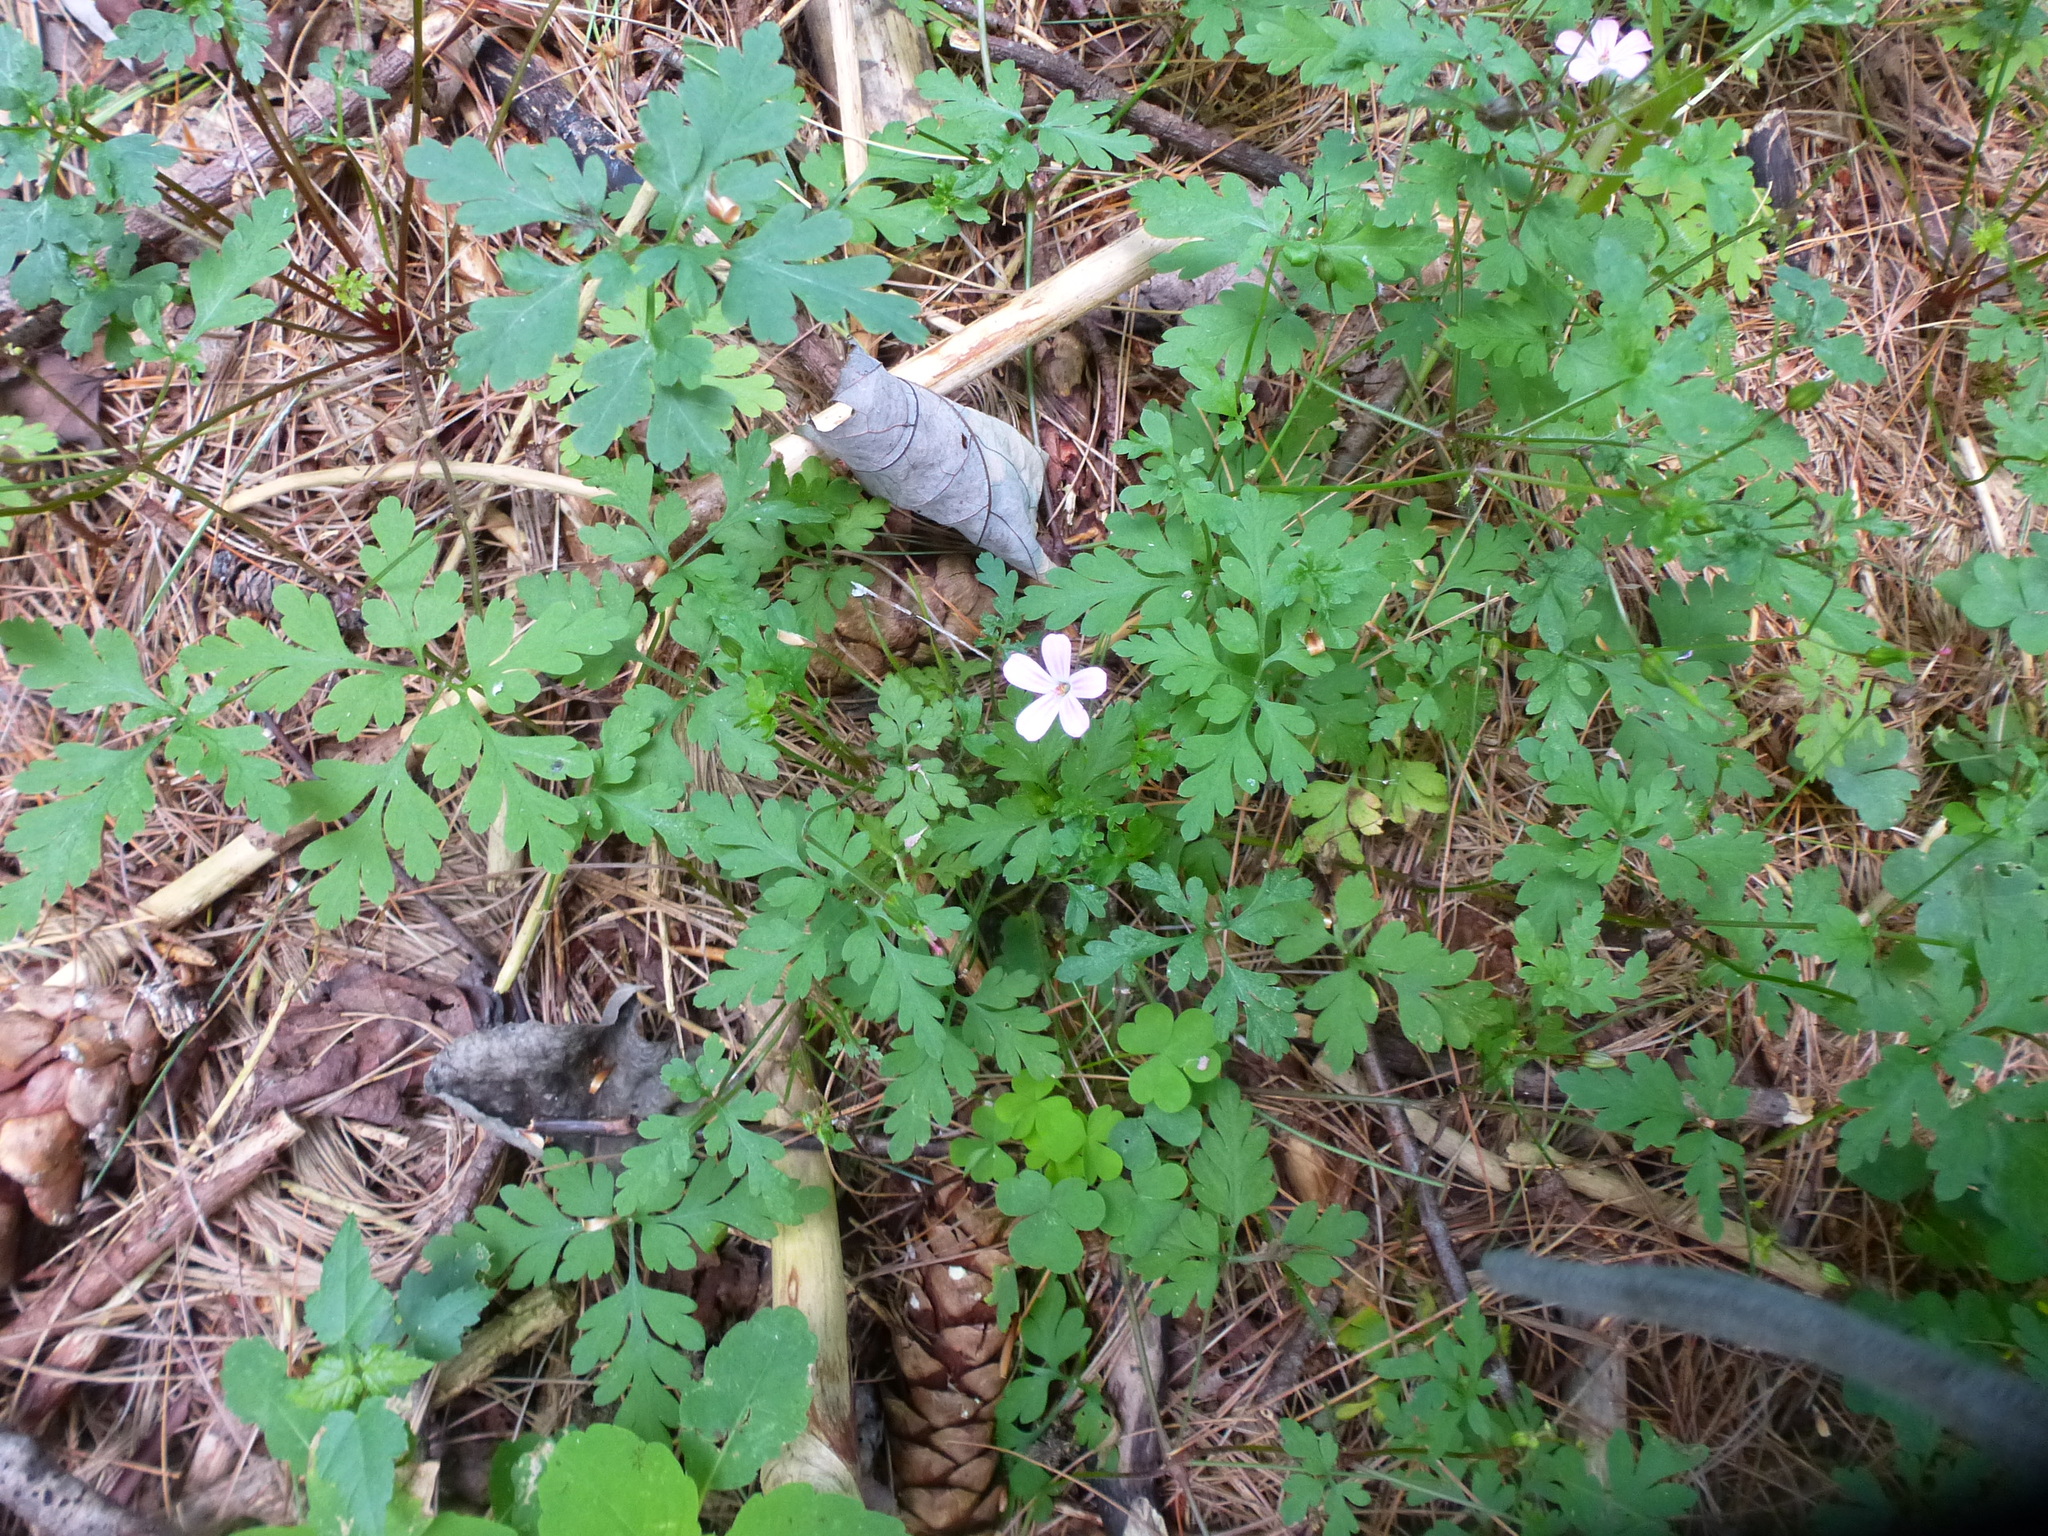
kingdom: Plantae
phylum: Tracheophyta
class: Magnoliopsida
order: Geraniales
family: Geraniaceae
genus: Geranium
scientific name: Geranium robertianum
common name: Herb-robert
